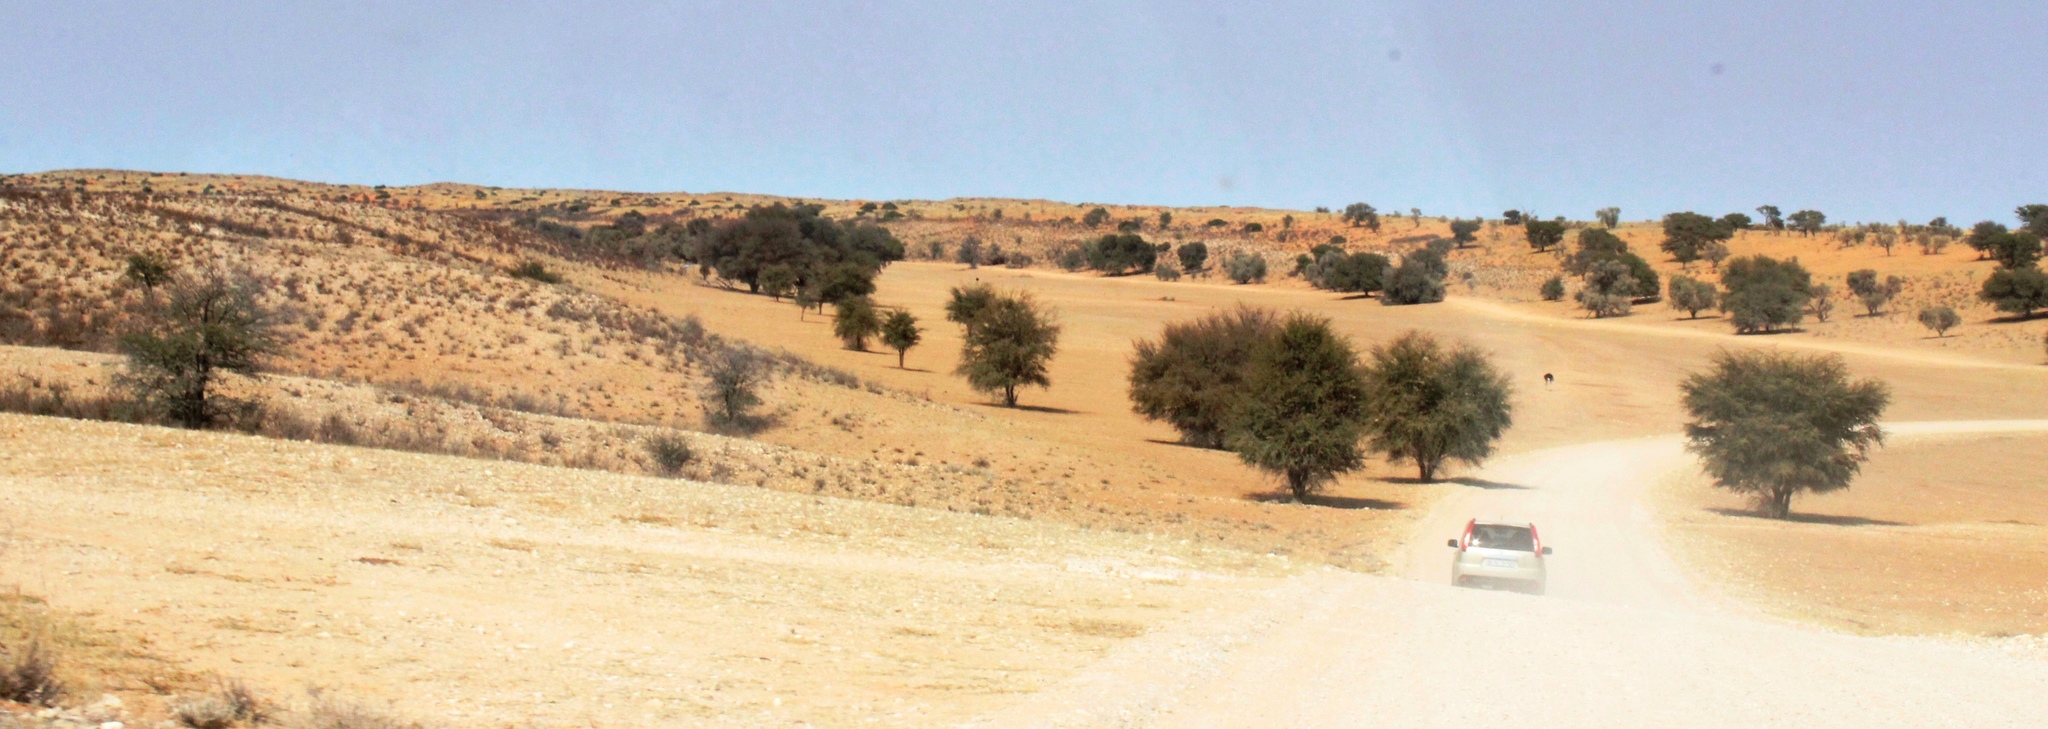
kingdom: Plantae
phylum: Tracheophyta
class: Magnoliopsida
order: Fabales
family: Fabaceae
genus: Vachellia
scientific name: Vachellia erioloba
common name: Camel thorn
